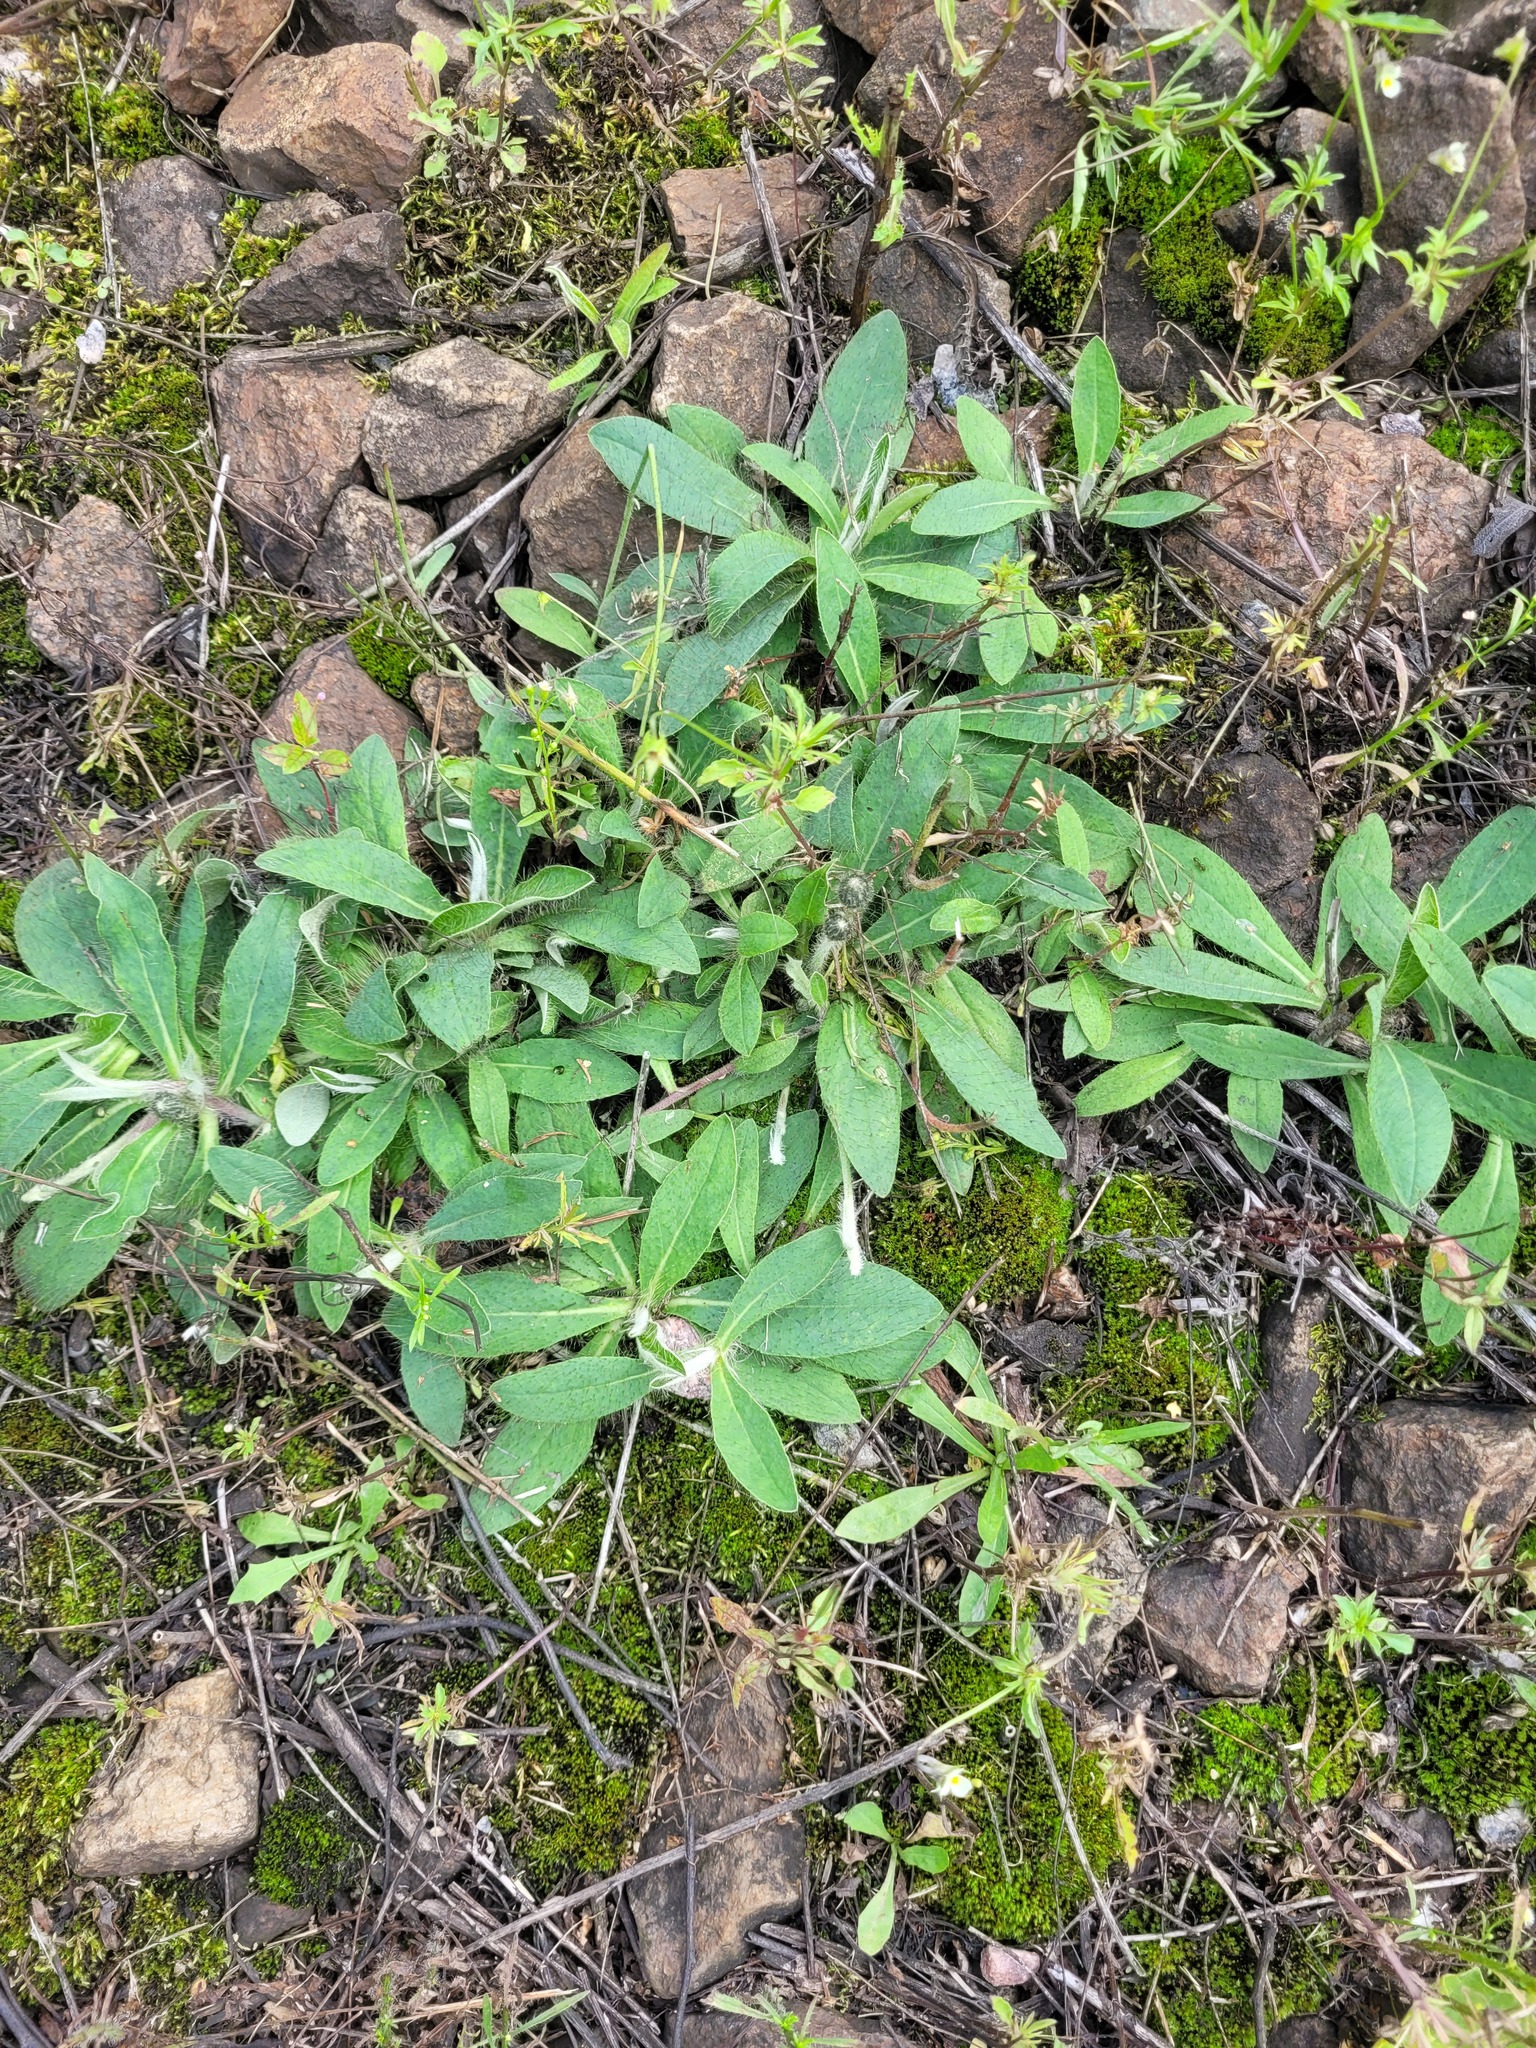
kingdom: Plantae
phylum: Tracheophyta
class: Magnoliopsida
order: Asterales
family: Asteraceae
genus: Pilosella
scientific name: Pilosella officinarum
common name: Mouse-ear hawkweed
